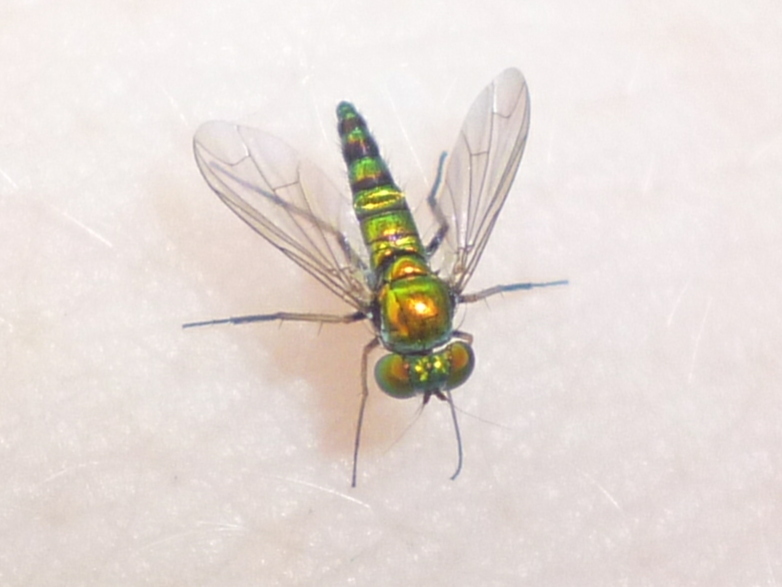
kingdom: Animalia
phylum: Arthropoda
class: Insecta
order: Diptera
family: Dolichopodidae
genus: Condylostylus
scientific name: Condylostylus
